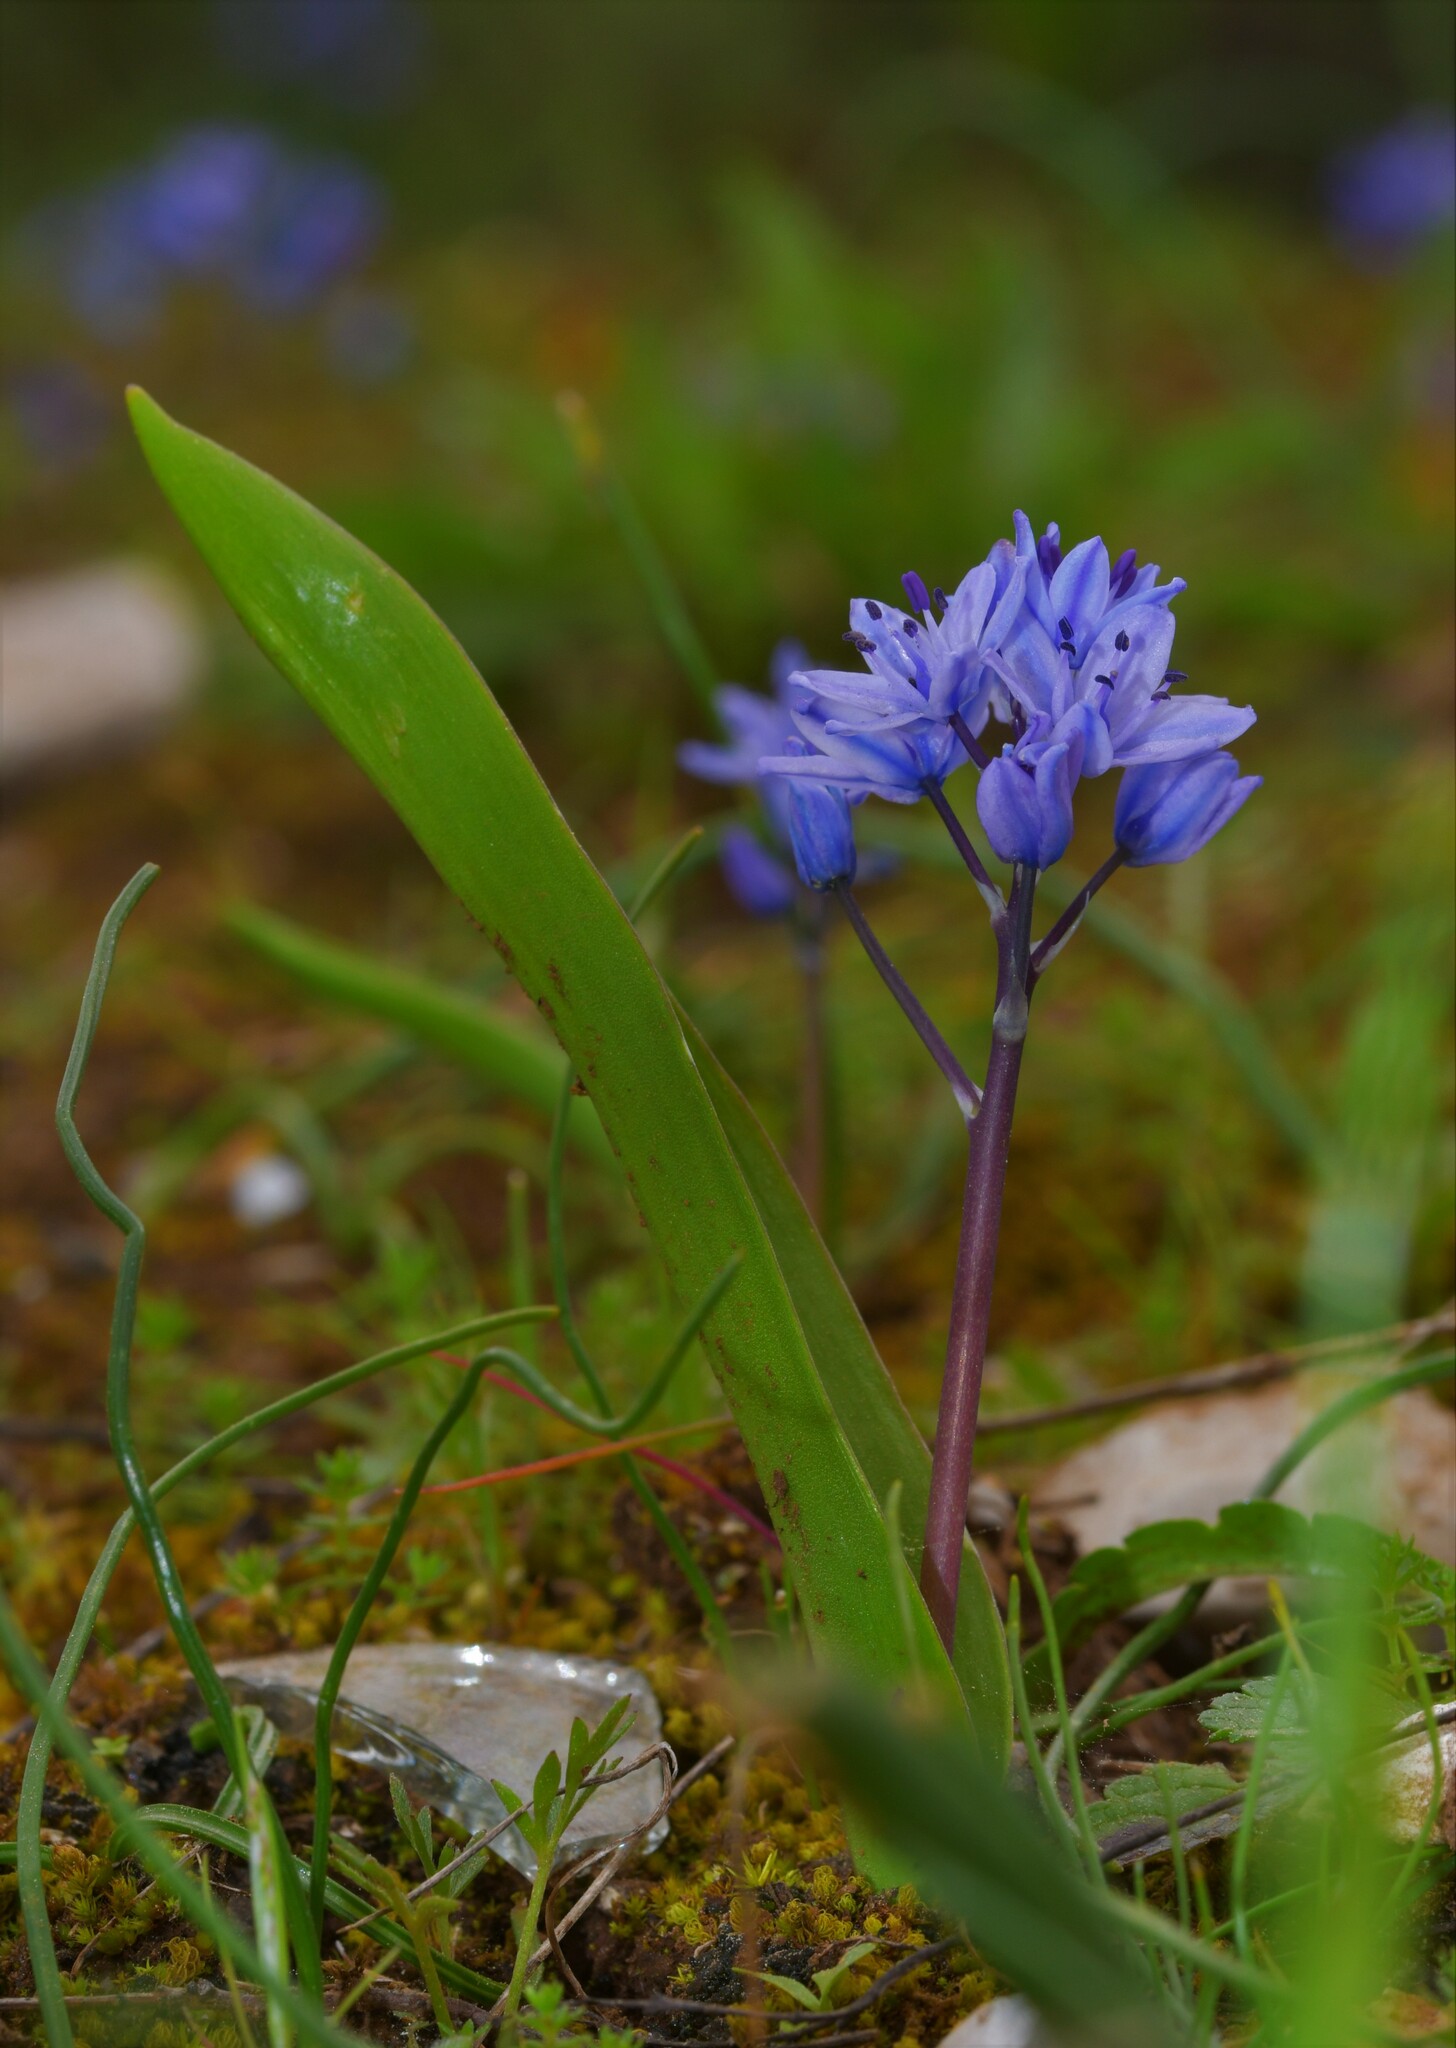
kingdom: Plantae
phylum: Tracheophyta
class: Liliopsida
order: Asparagales
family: Asparagaceae
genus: Scilla
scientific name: Scilla monophyllos
